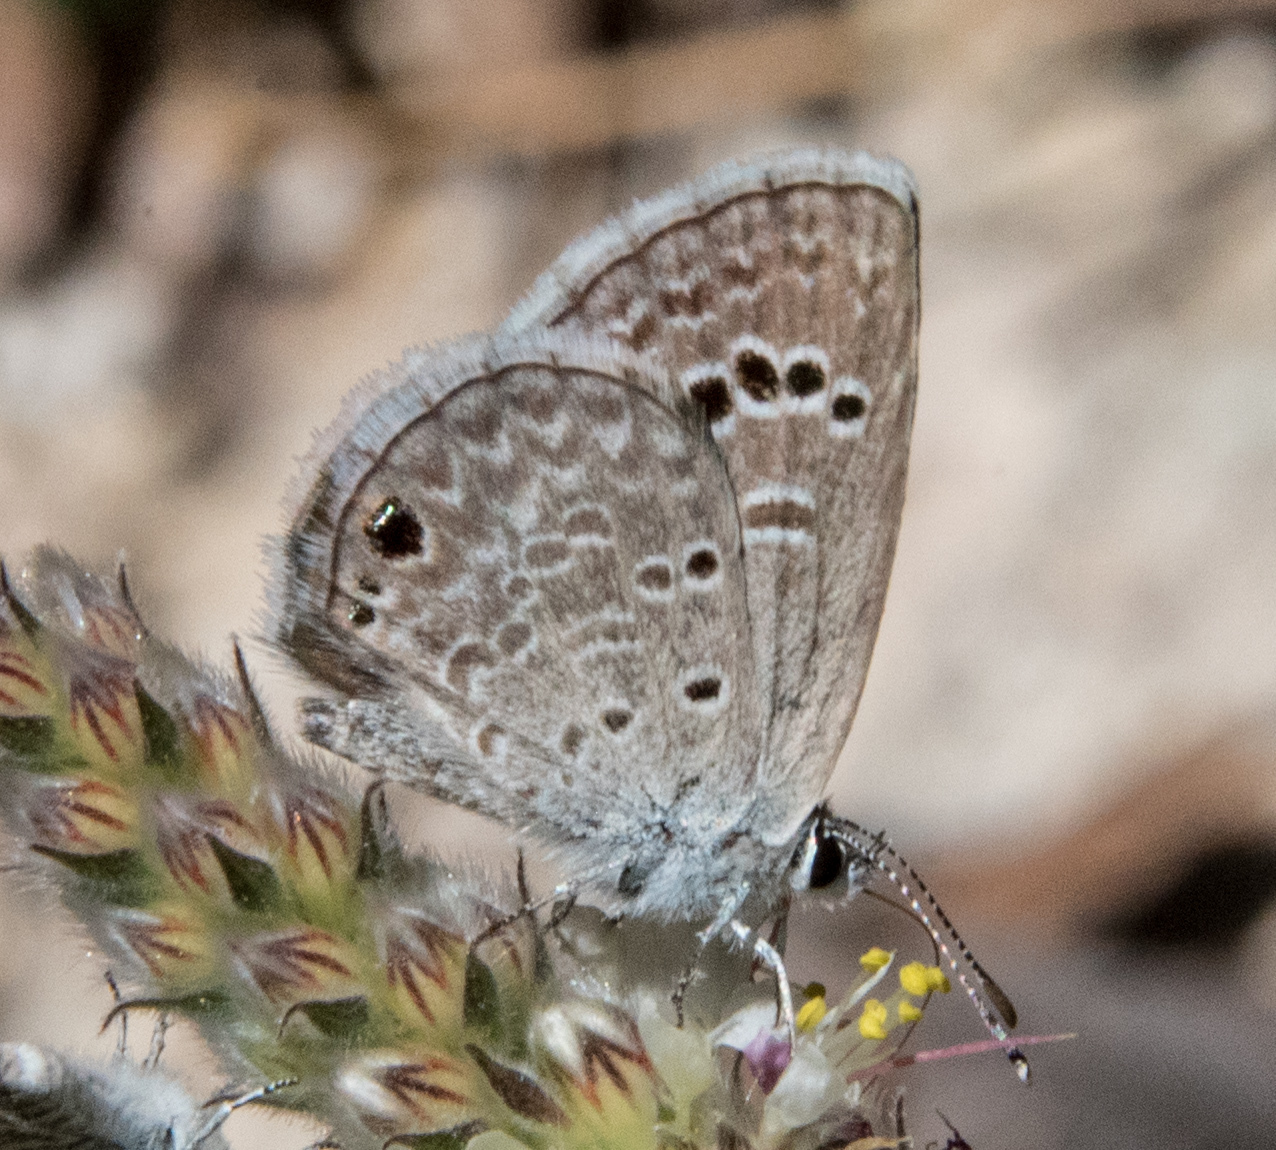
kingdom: Animalia
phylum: Arthropoda
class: Insecta
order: Lepidoptera
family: Lycaenidae
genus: Echinargus
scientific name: Echinargus isola
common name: Reakirt's blue
